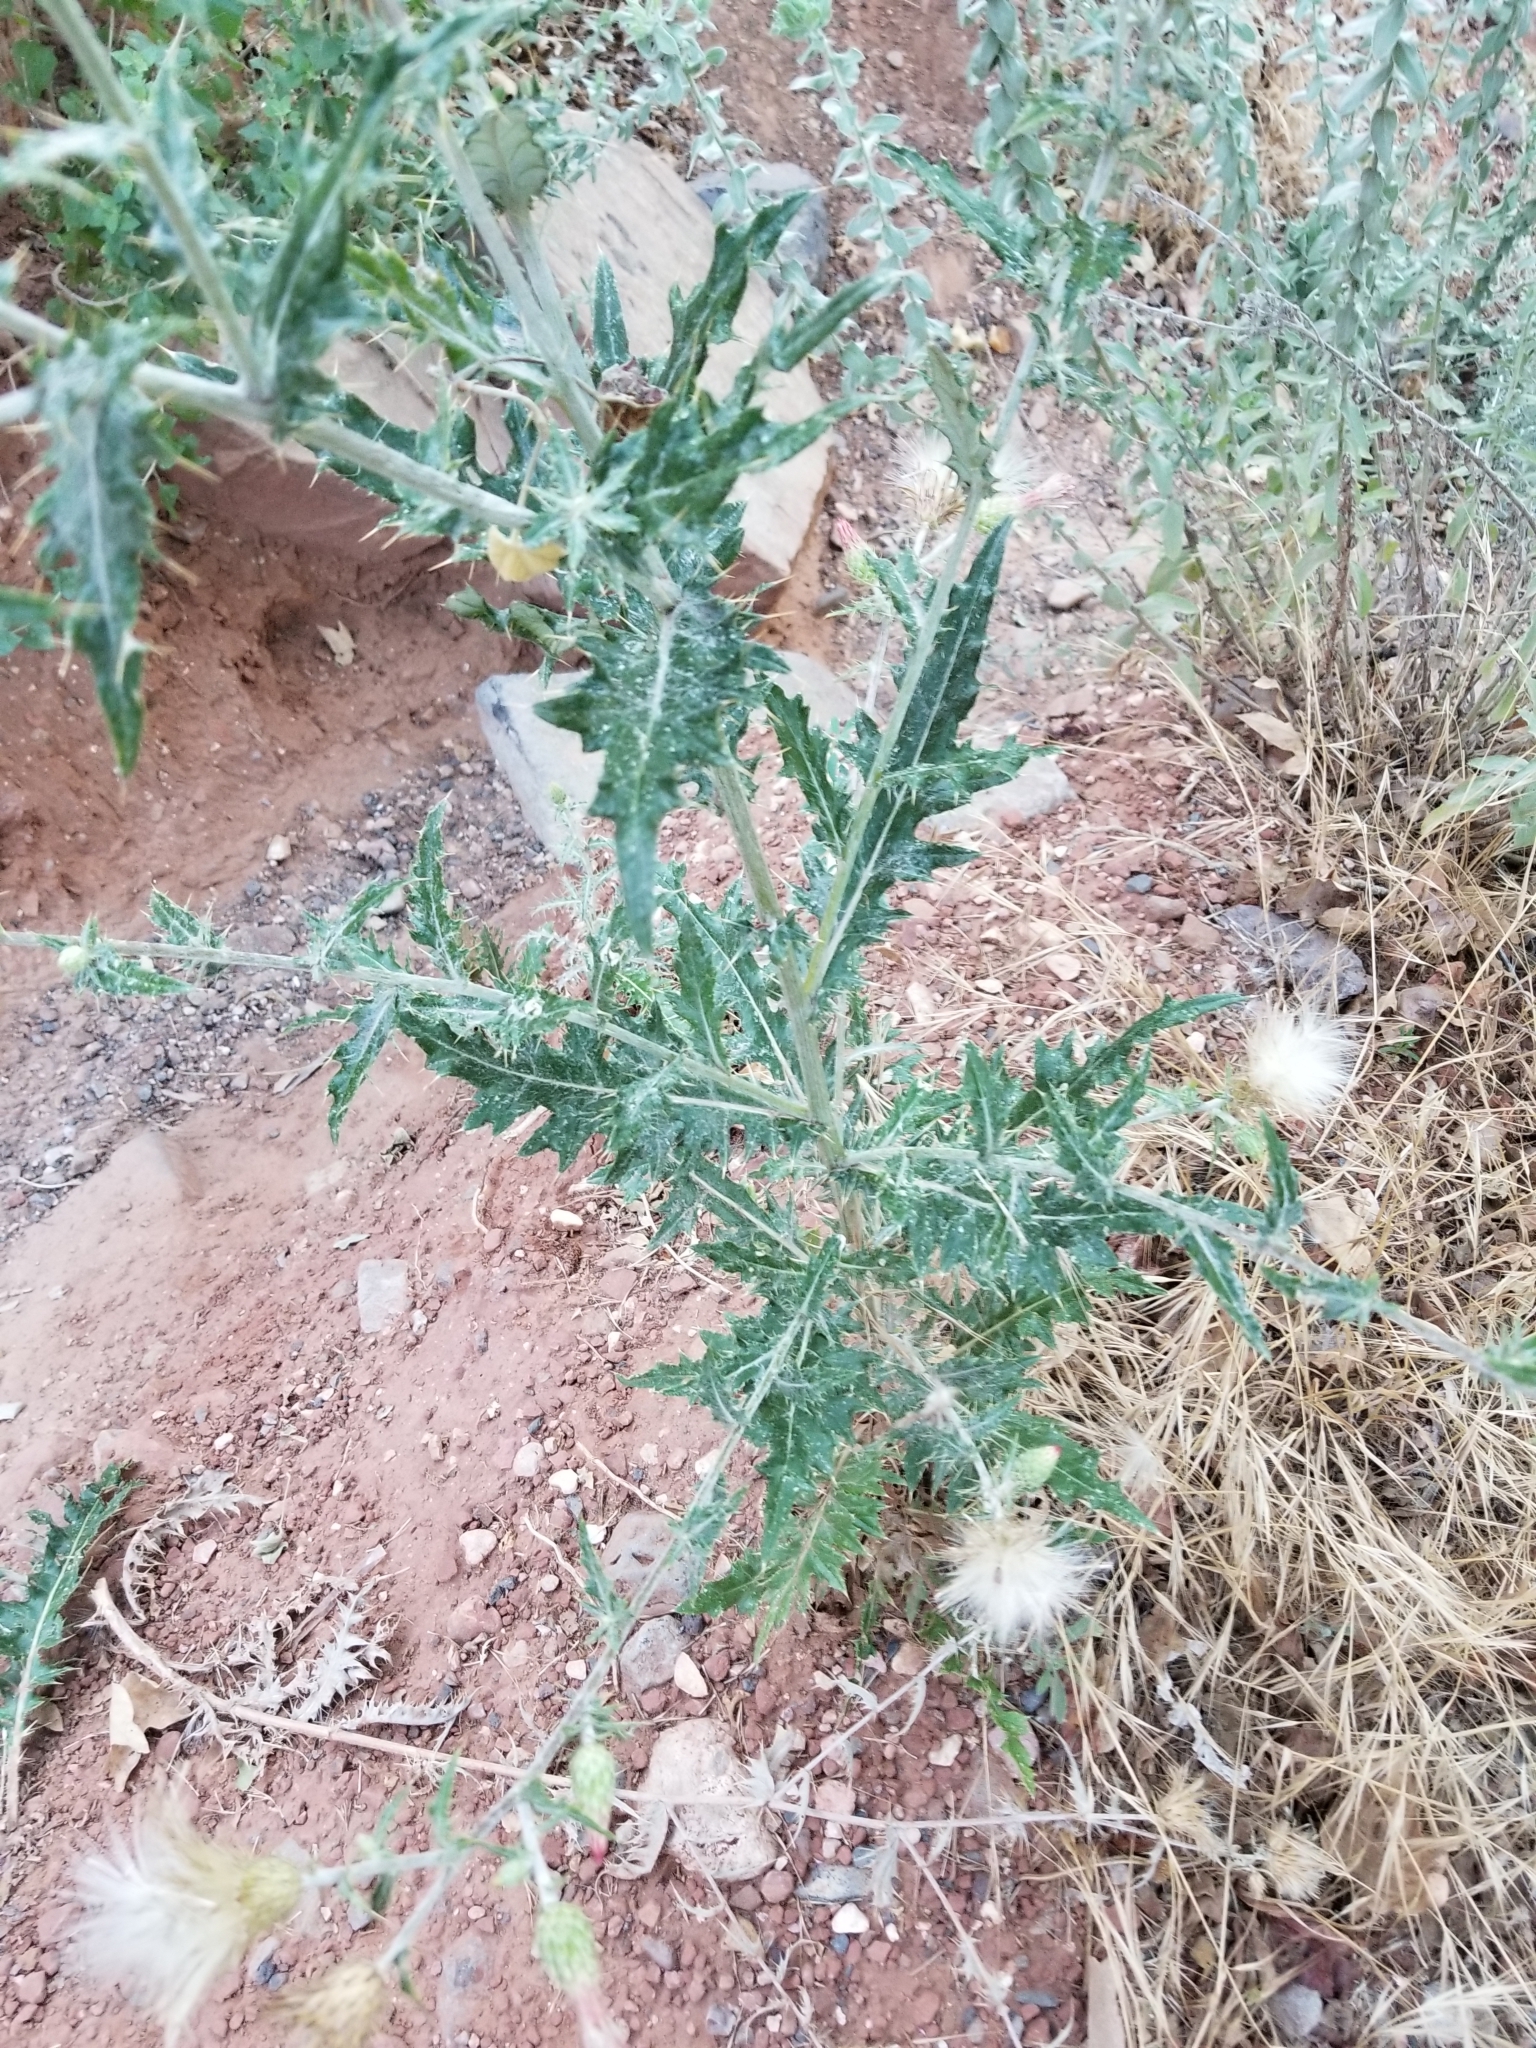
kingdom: Plantae
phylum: Tracheophyta
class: Magnoliopsida
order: Asterales
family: Asteraceae
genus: Cirsium
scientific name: Cirsium arizonicum
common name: Arizona thistle
